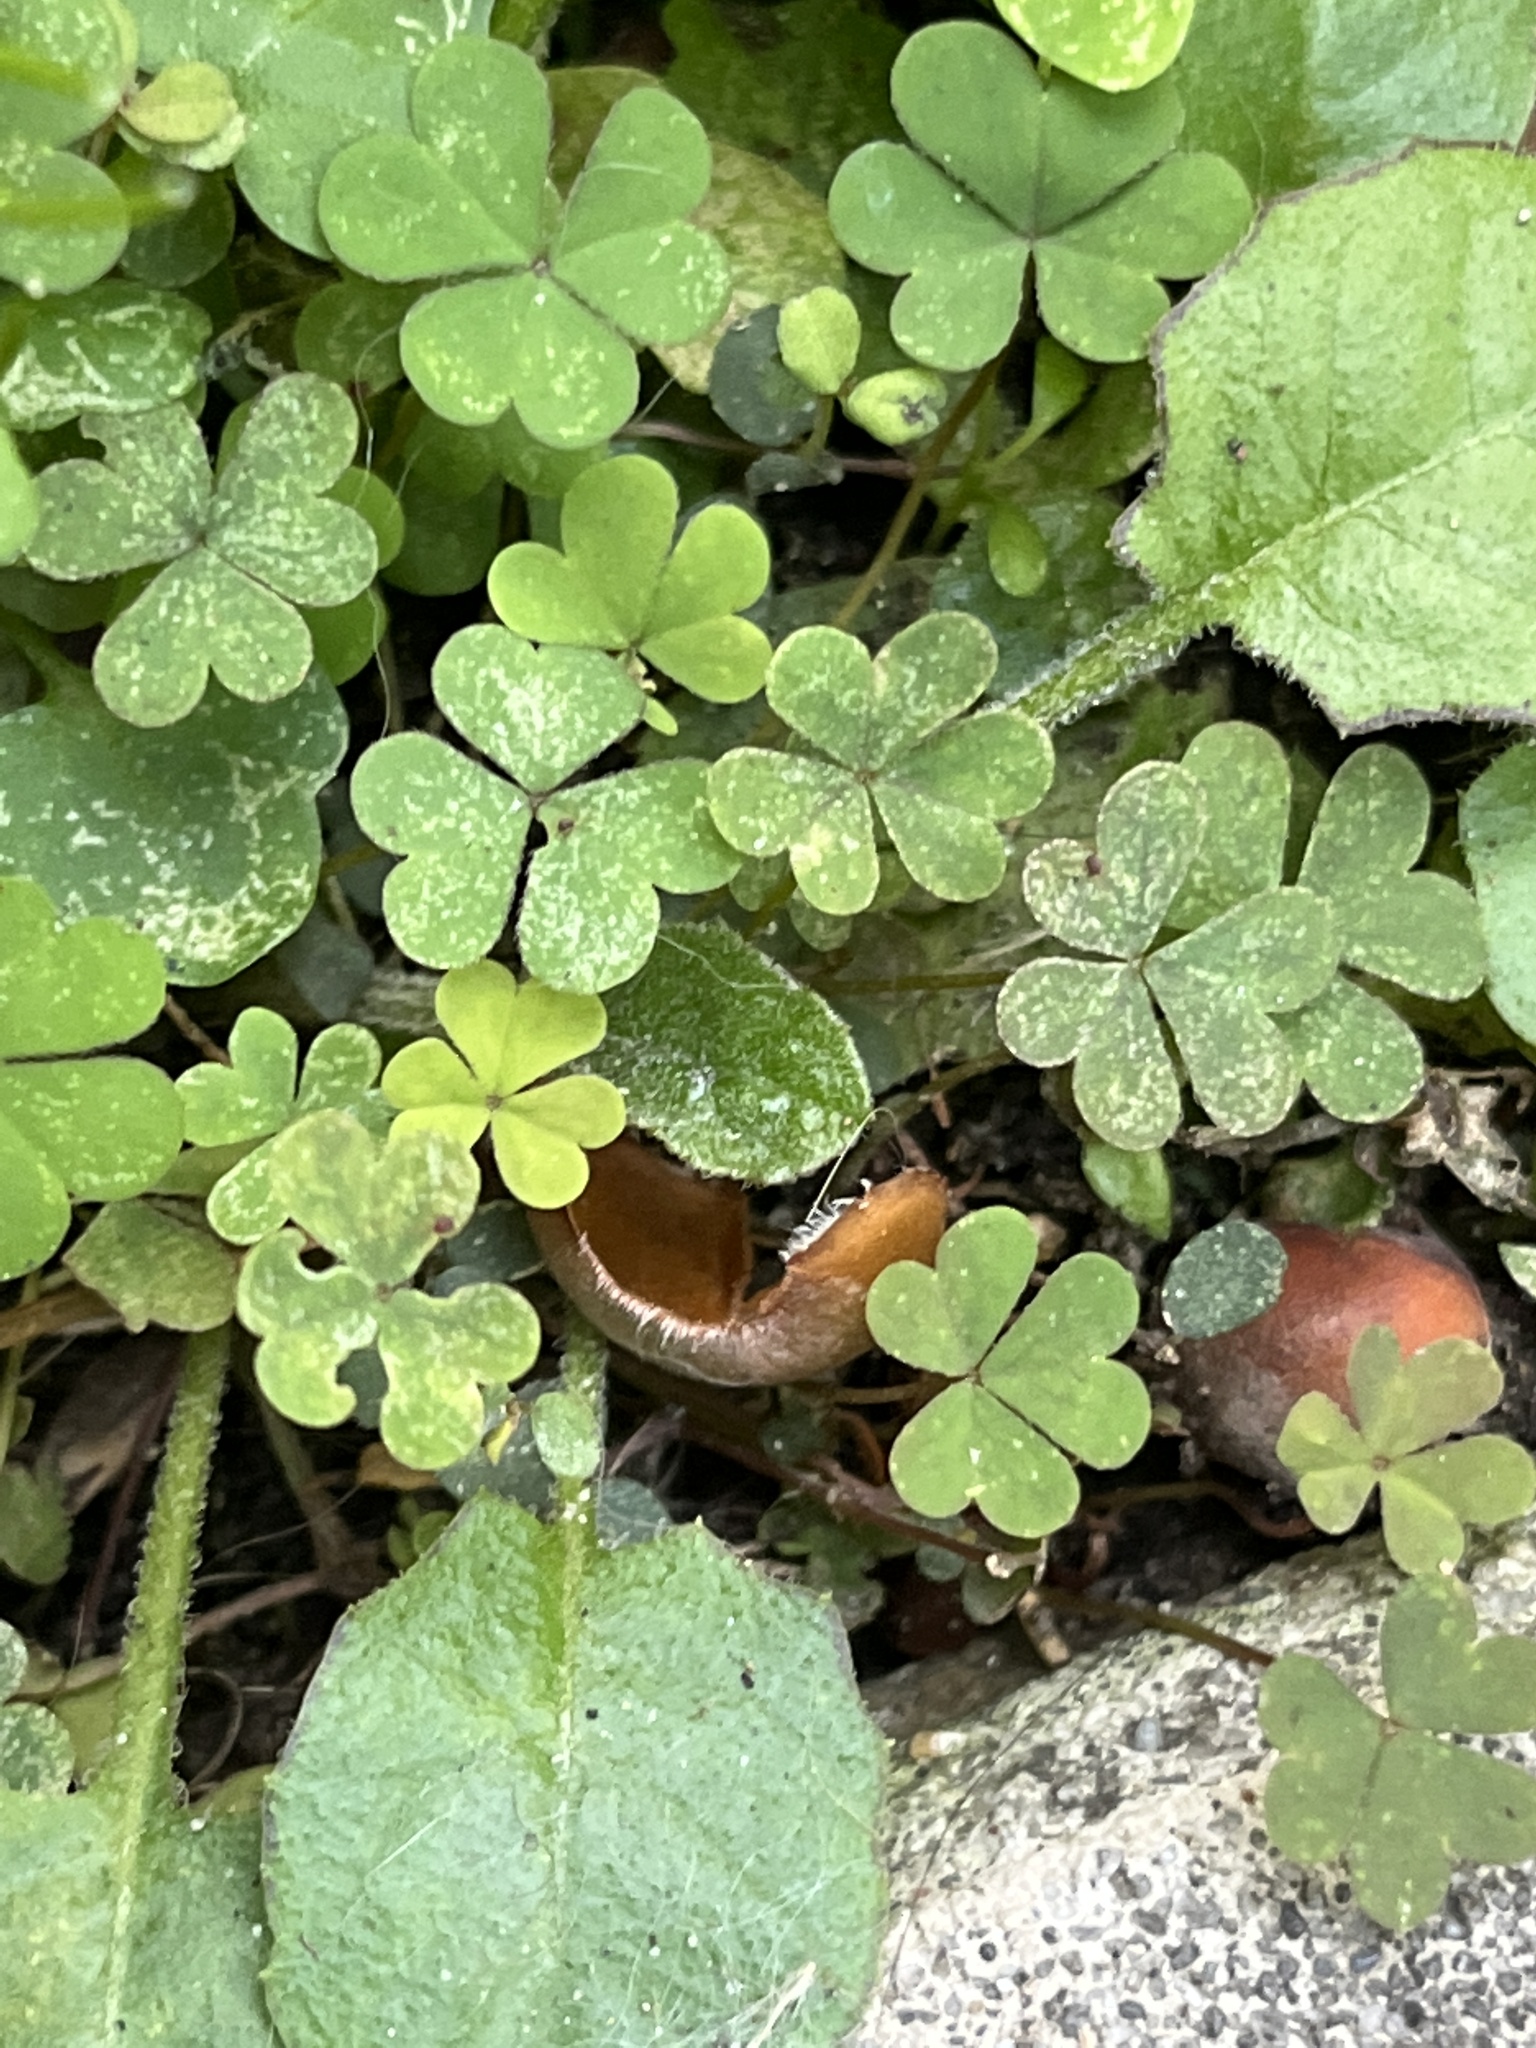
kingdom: Plantae
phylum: Tracheophyta
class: Magnoliopsida
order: Oxalidales
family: Oxalidaceae
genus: Oxalis
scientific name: Oxalis corniculata
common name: Procumbent yellow-sorrel
